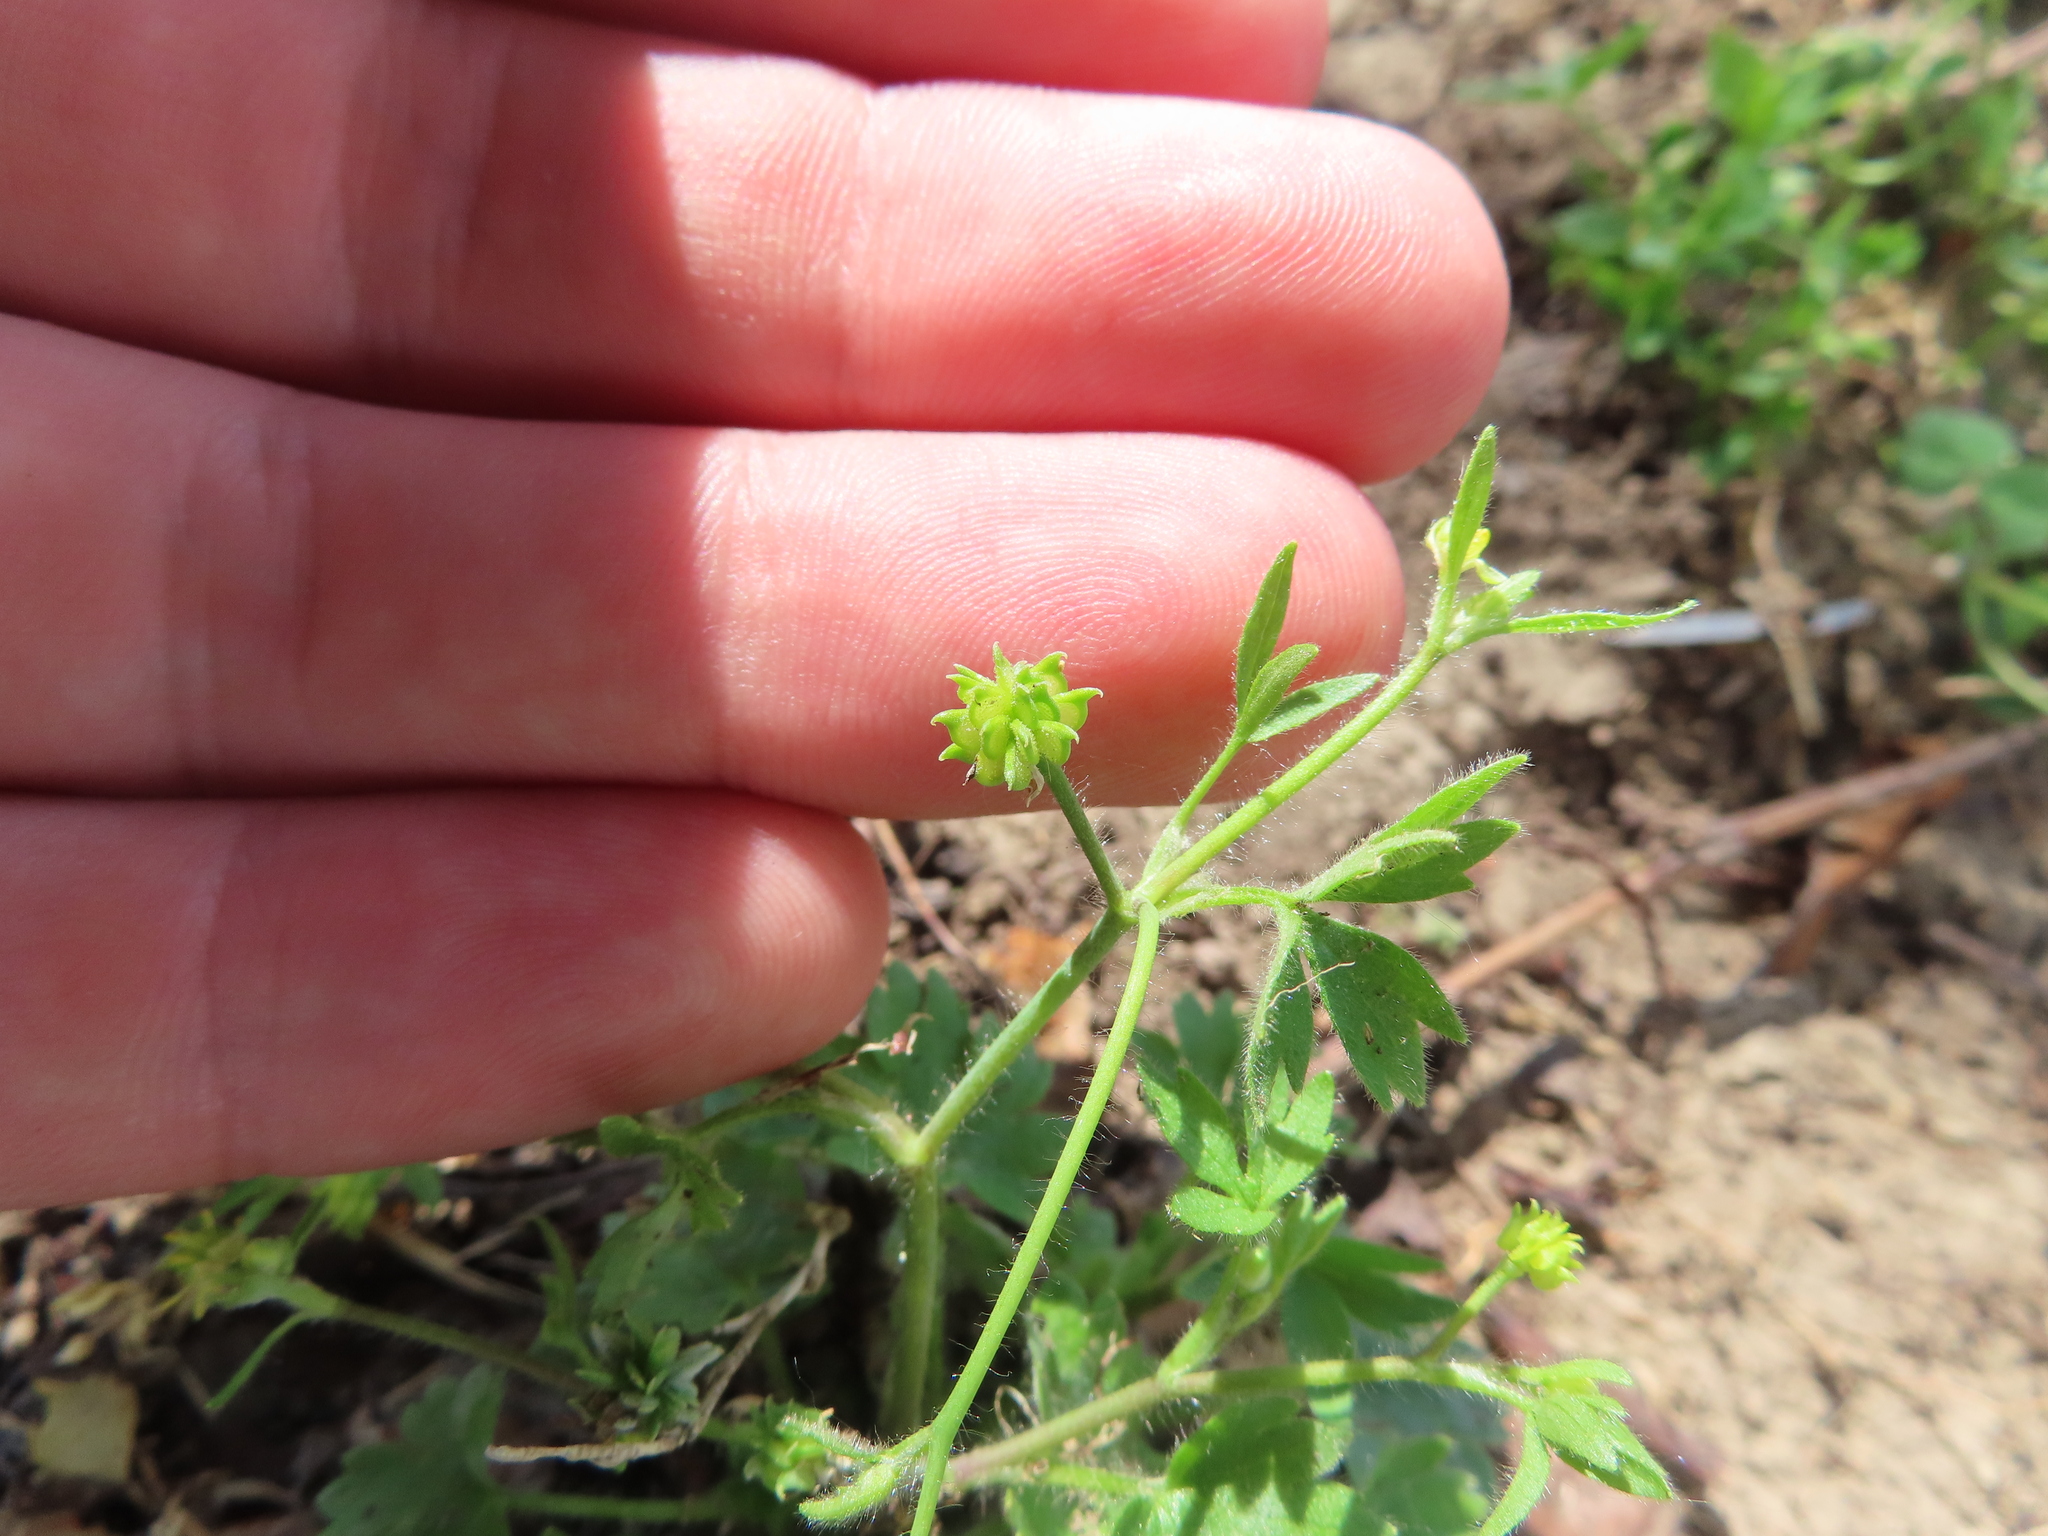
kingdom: Plantae
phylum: Tracheophyta
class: Magnoliopsida
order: Ranunculales
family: Ranunculaceae
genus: Ranunculus
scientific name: Ranunculus sardous
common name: Hairy buttercup
